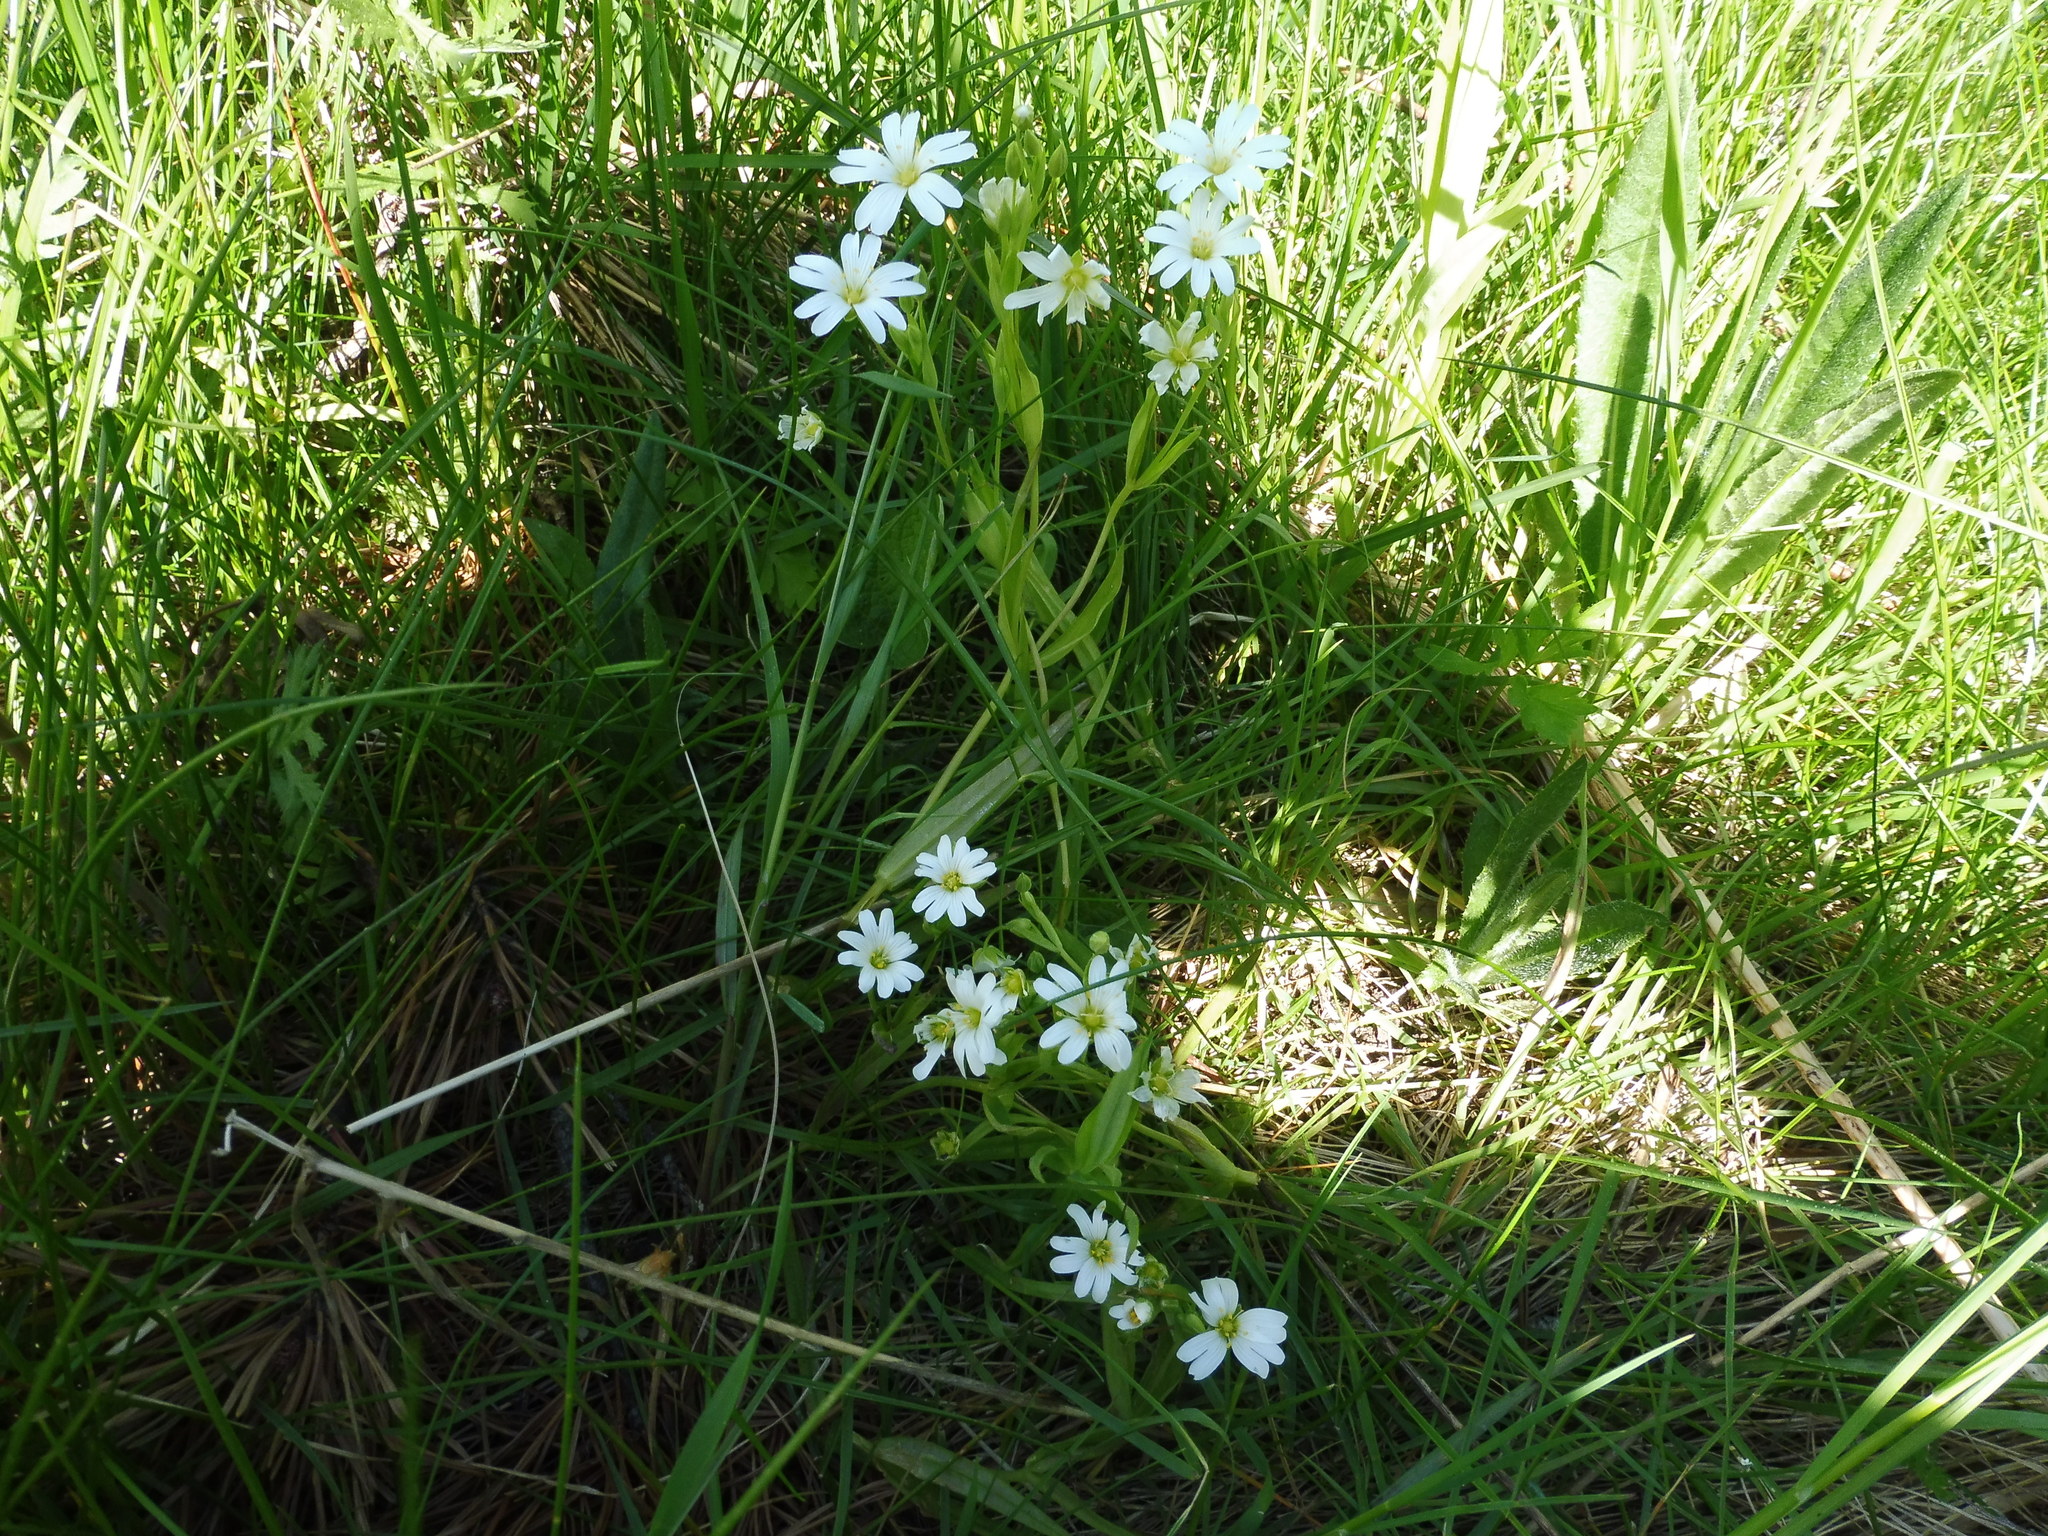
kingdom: Plantae
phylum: Tracheophyta
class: Magnoliopsida
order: Caryophyllales
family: Caryophyllaceae
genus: Rabelera
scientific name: Rabelera holostea
